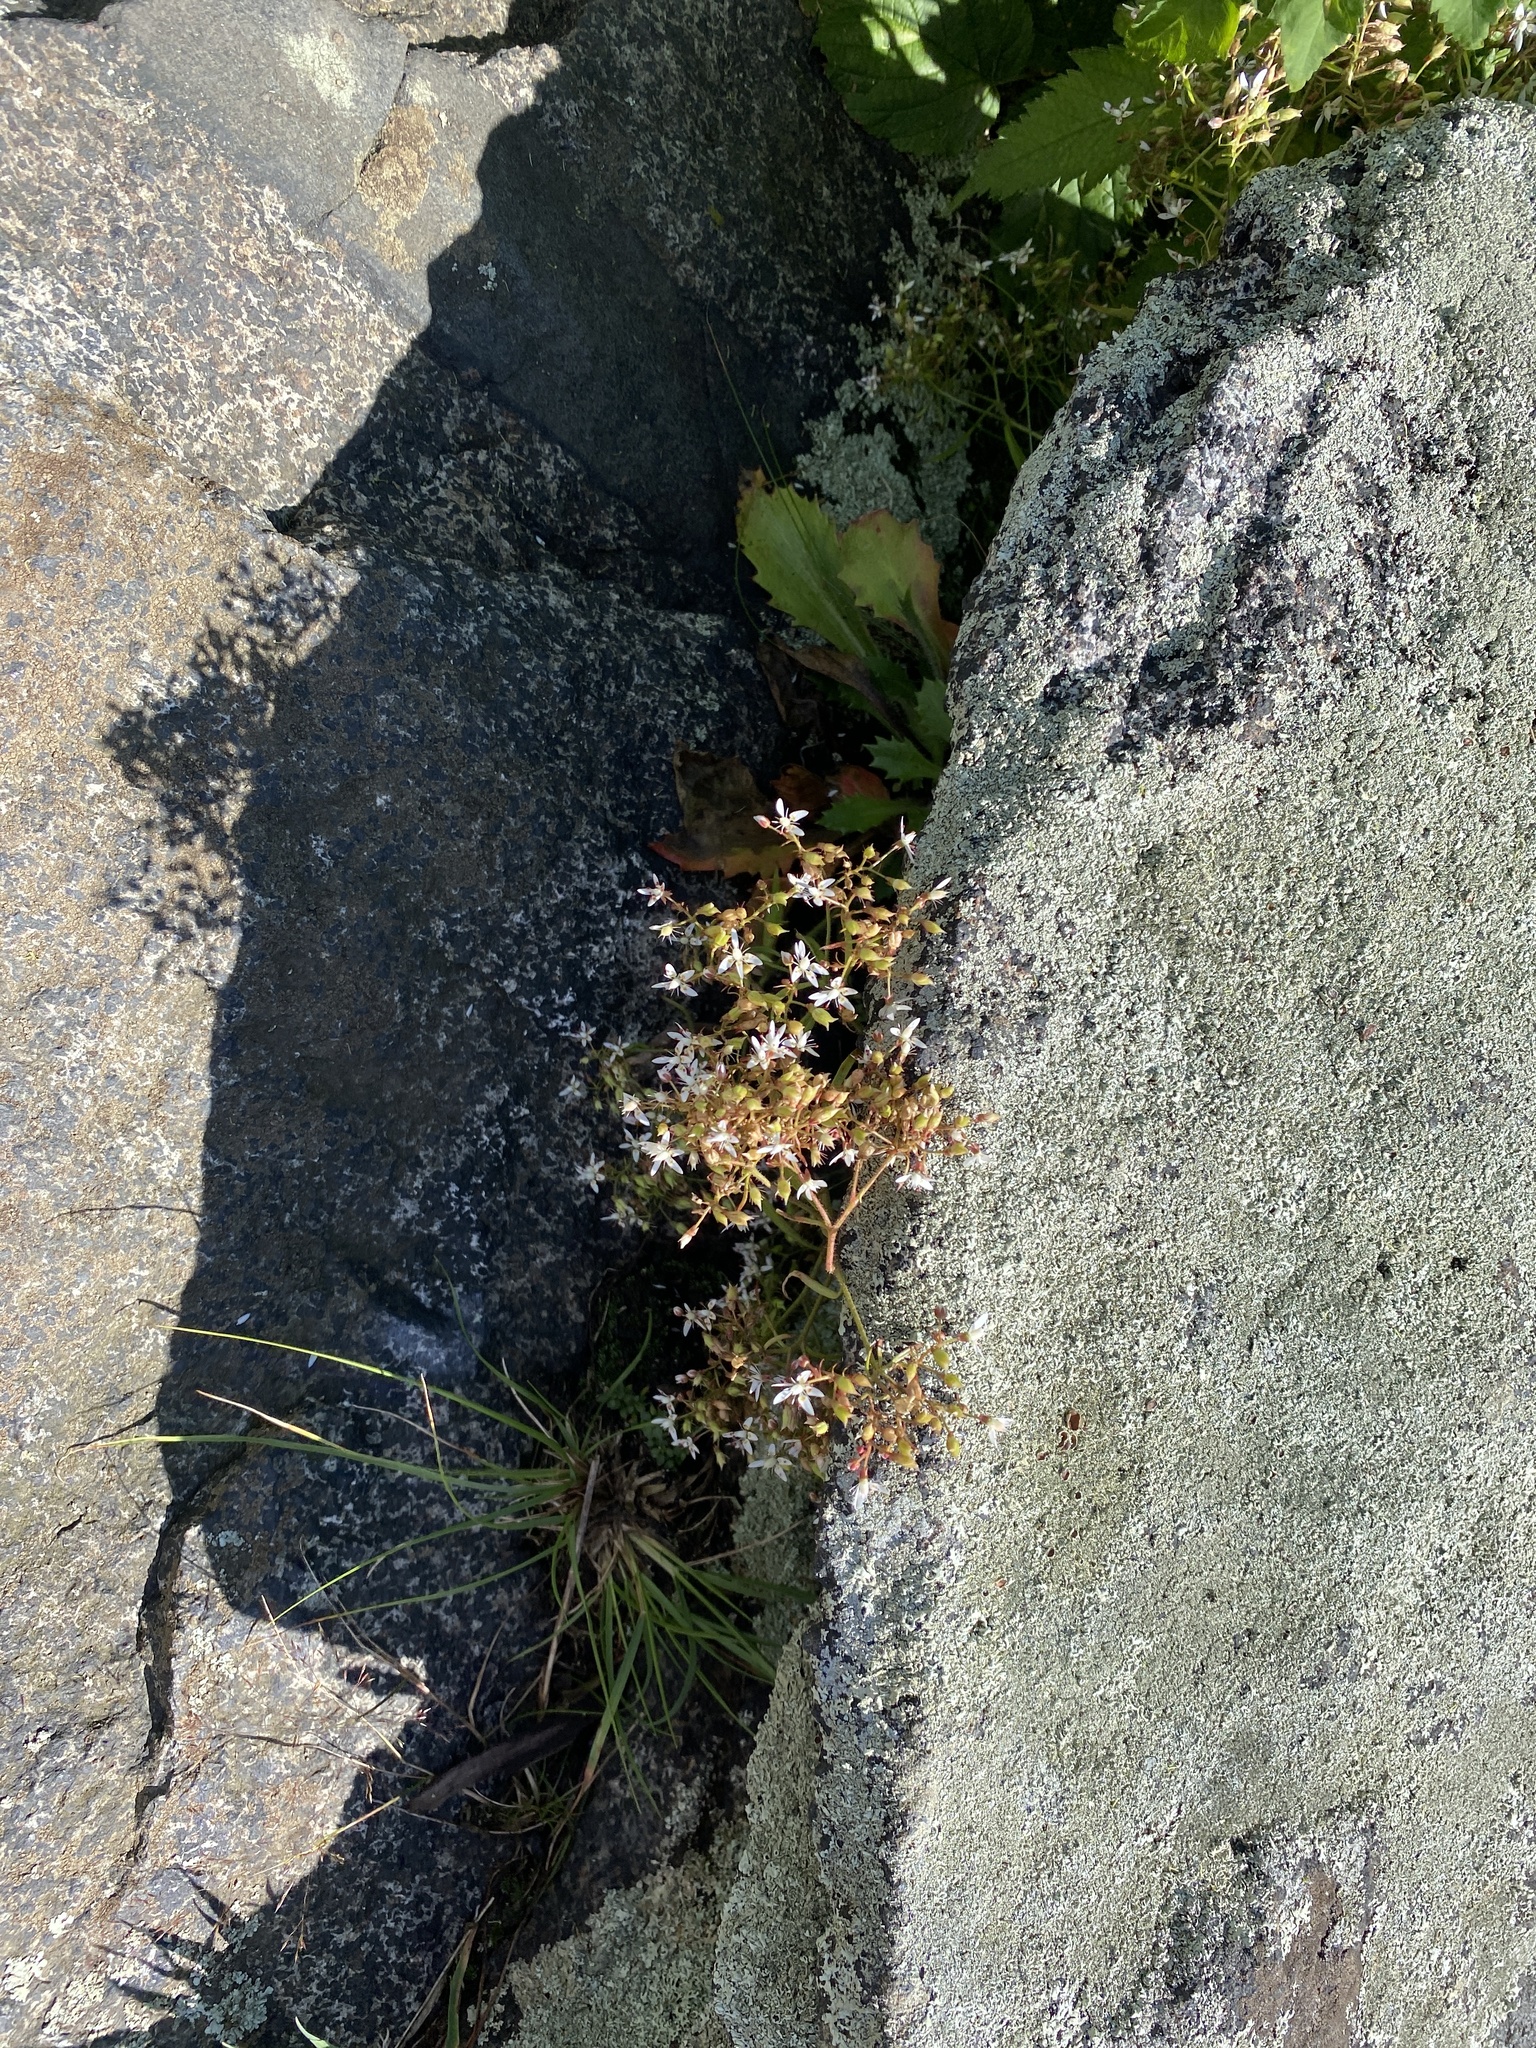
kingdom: Plantae
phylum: Tracheophyta
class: Magnoliopsida
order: Saxifragales
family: Saxifragaceae
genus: Micranthes
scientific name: Micranthes petiolaris
